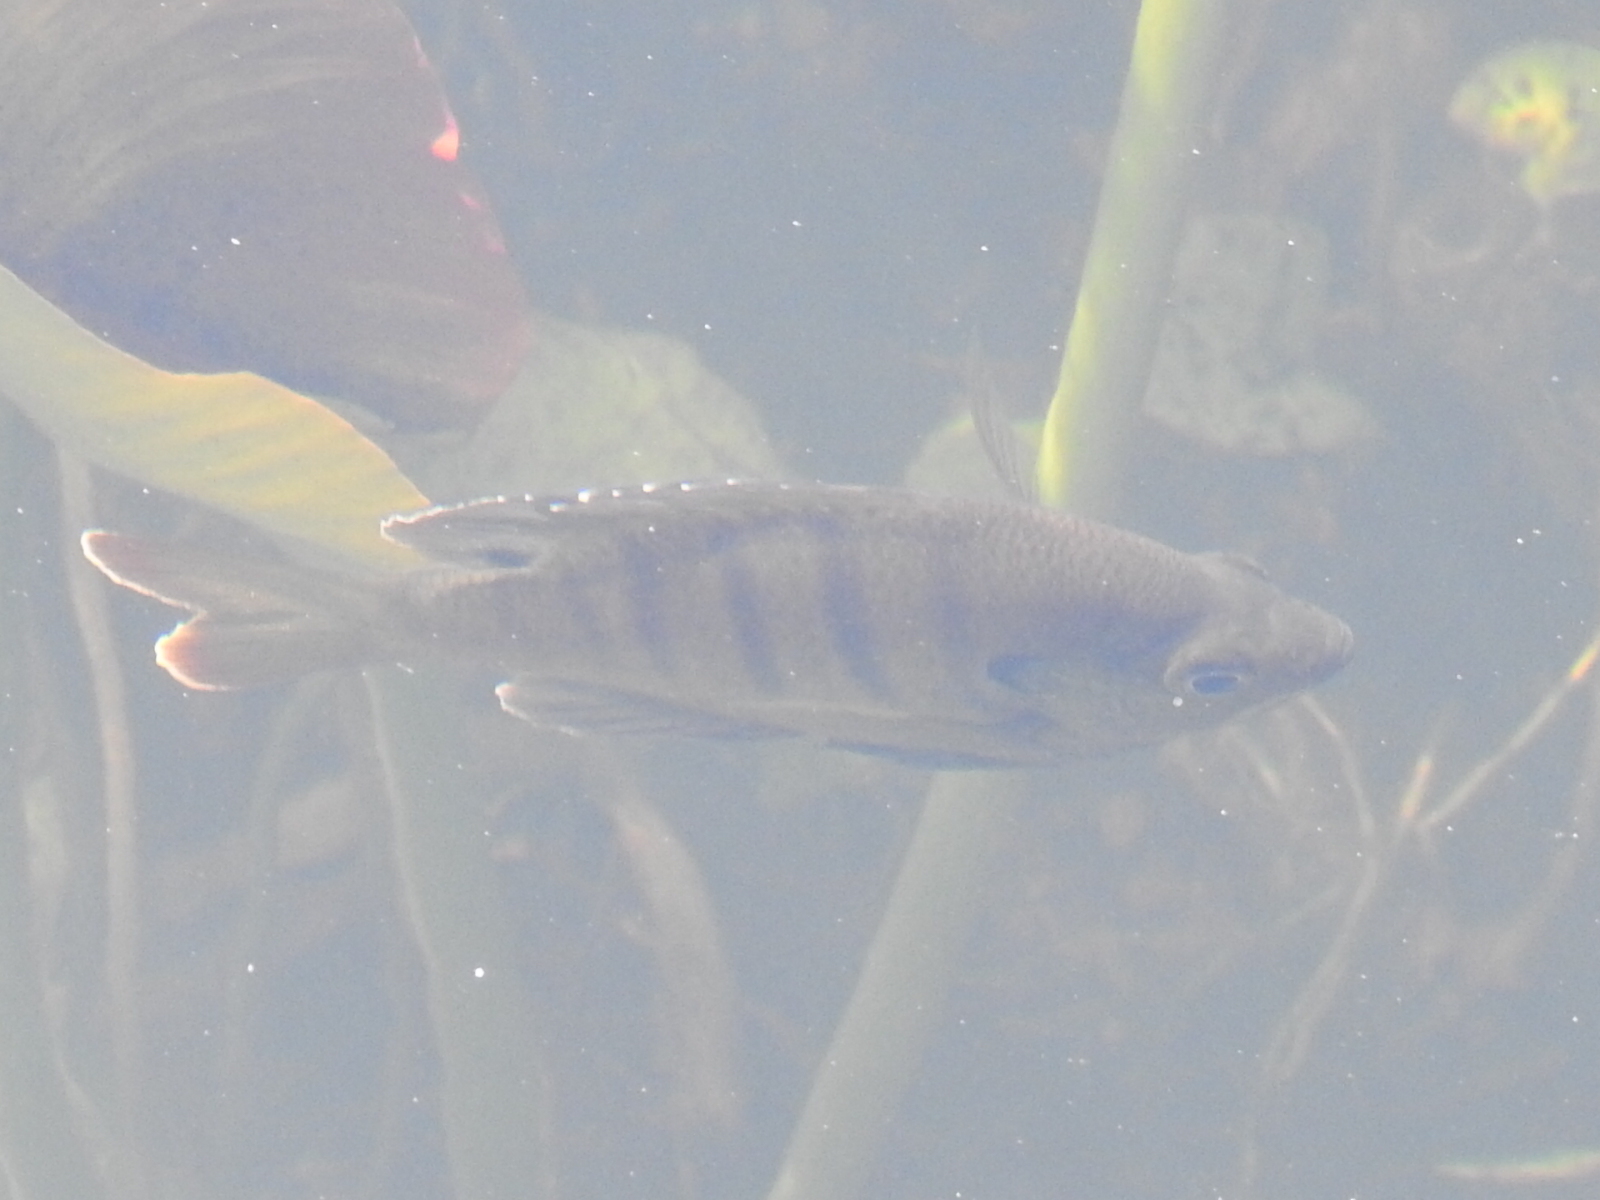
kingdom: Animalia
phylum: Chordata
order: Perciformes
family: Centrarchidae
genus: Lepomis
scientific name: Lepomis macrochirus
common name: Bluegill
